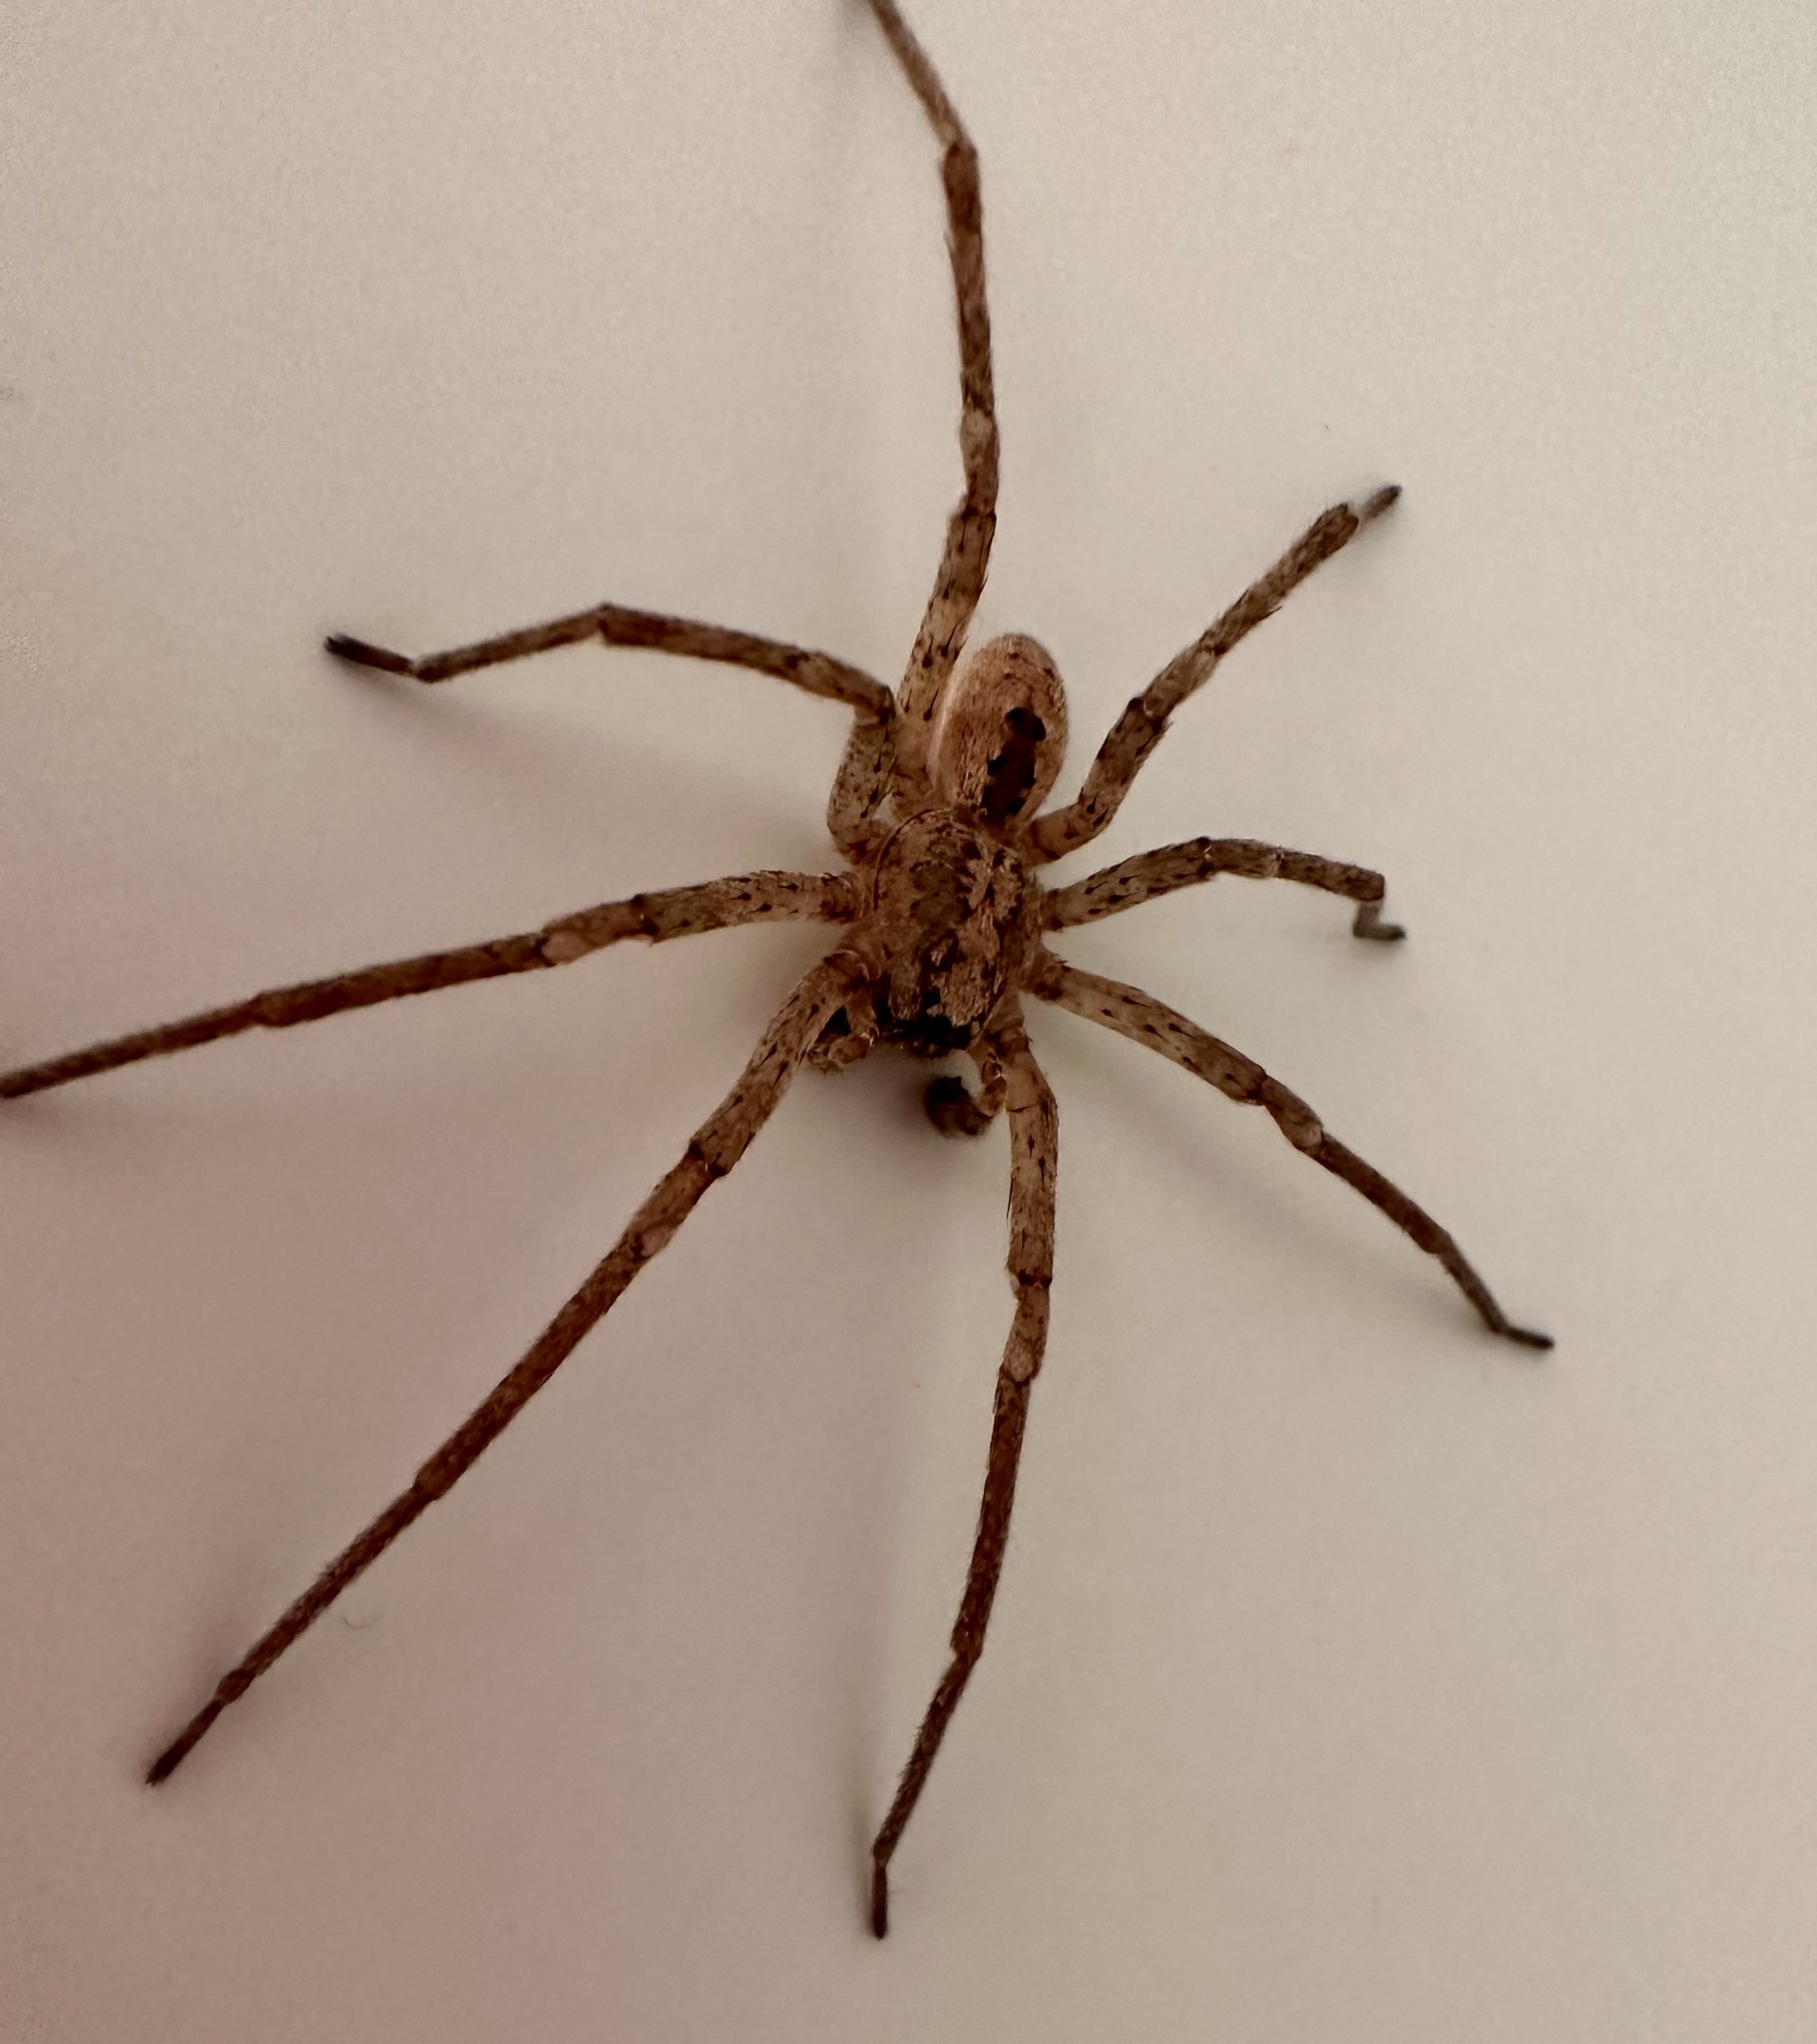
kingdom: Animalia
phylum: Arthropoda
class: Arachnida
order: Araneae
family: Zoropsidae
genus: Zoropsis
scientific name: Zoropsis spinimana
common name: Zoropsid spider
